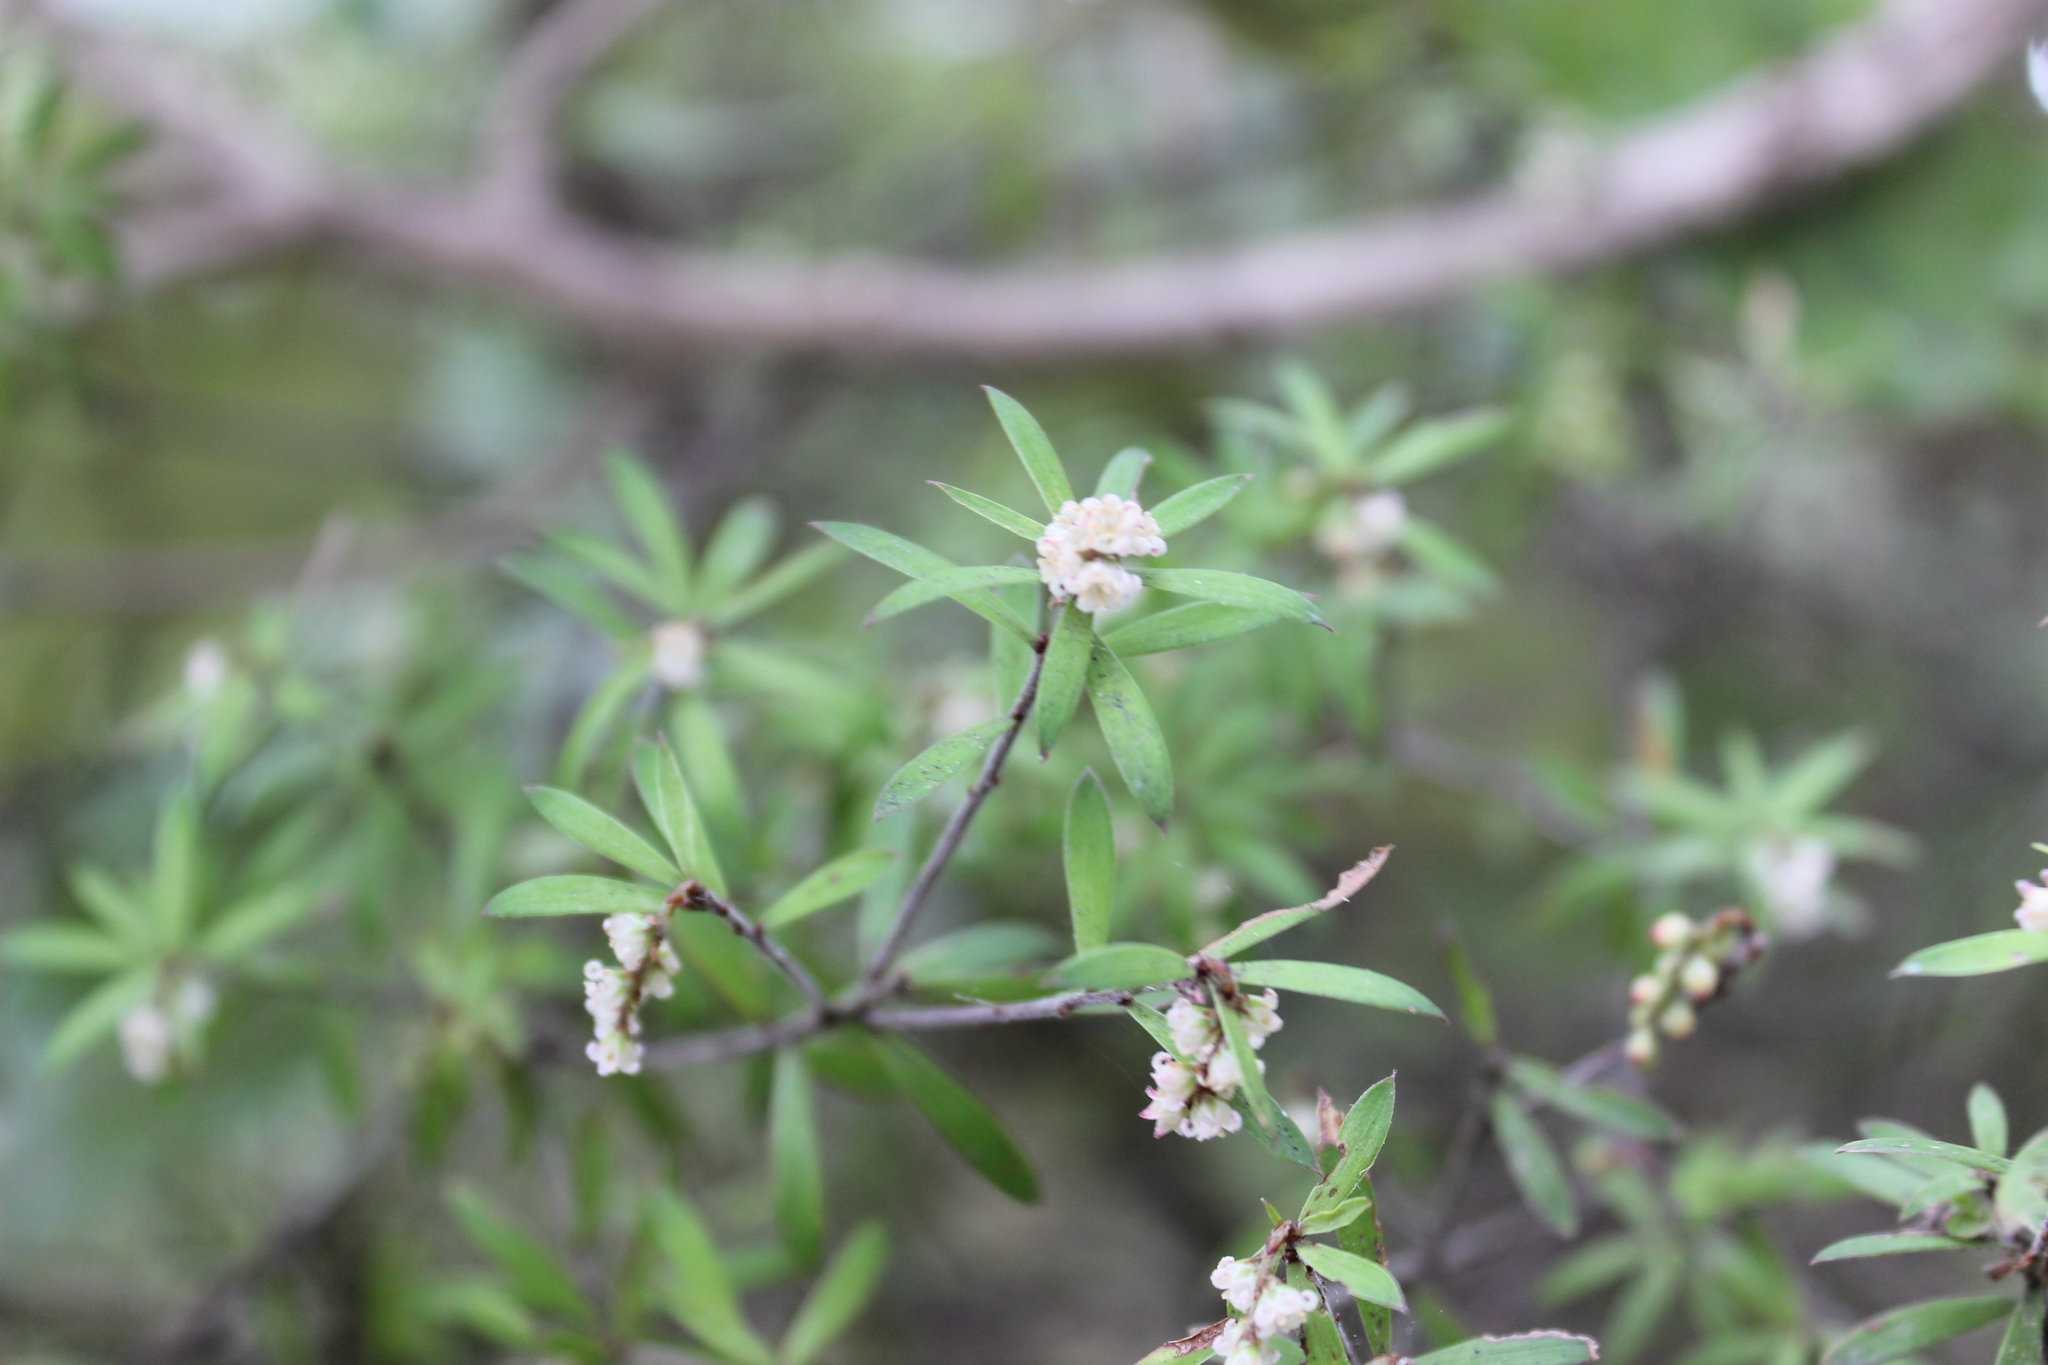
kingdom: Plantae
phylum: Tracheophyta
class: Magnoliopsida
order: Ericales
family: Ericaceae
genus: Leucopogon
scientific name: Leucopogon fasciculatus
